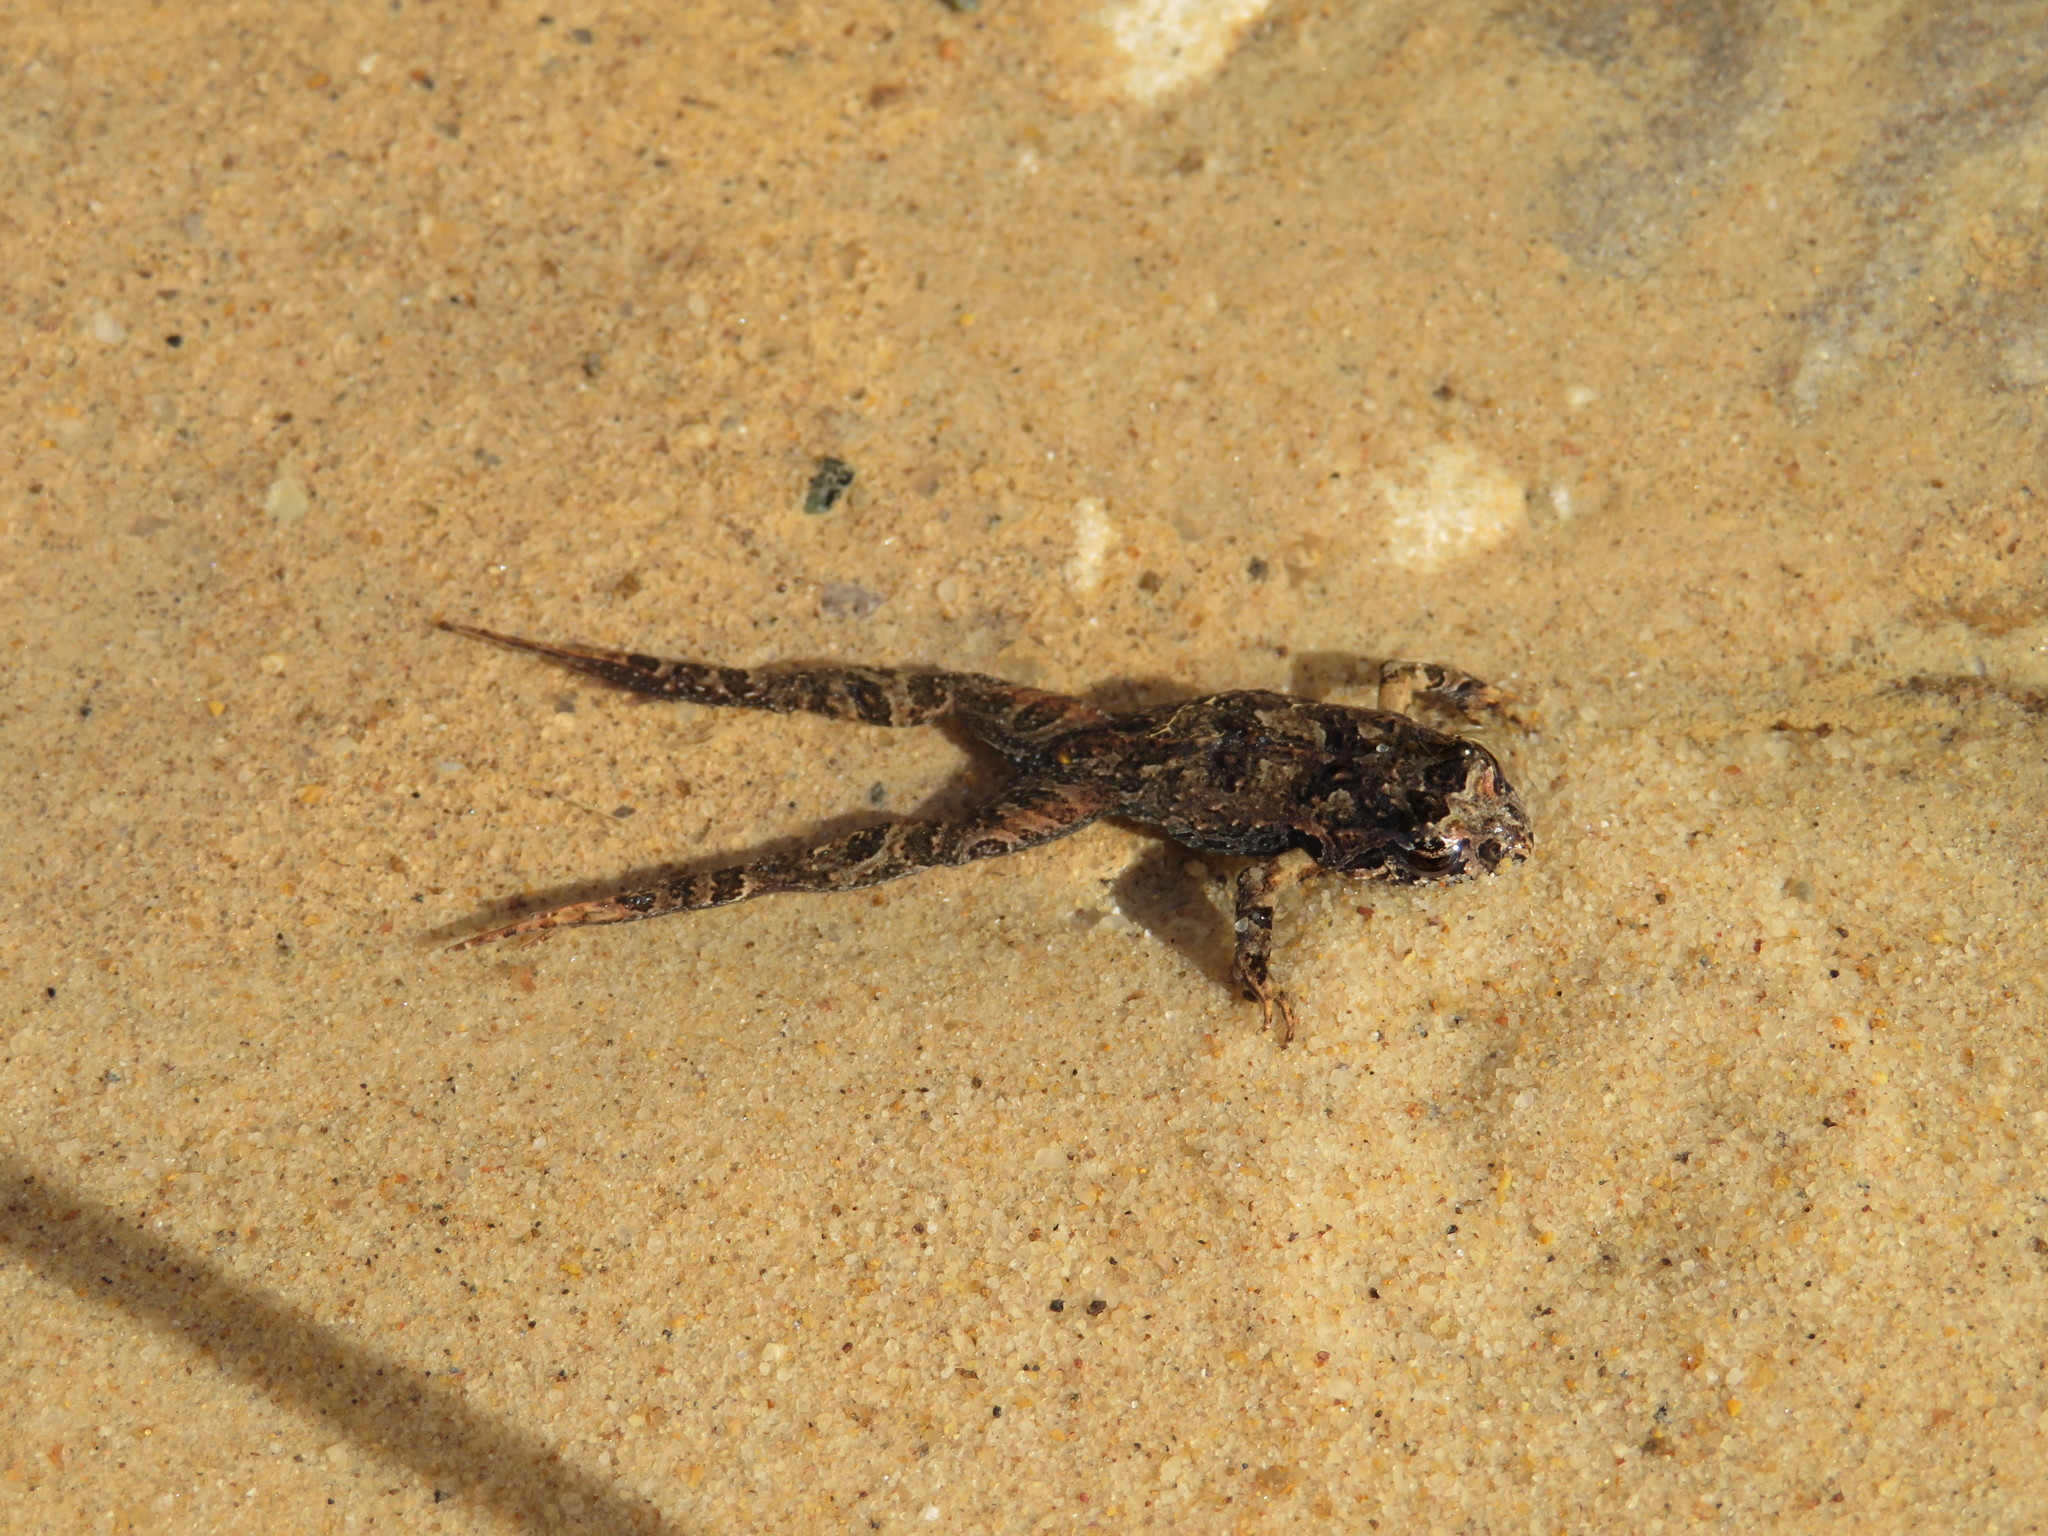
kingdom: Animalia
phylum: Chordata
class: Amphibia
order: Anura
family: Myobatrachidae
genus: Crinia
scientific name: Crinia signifera
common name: Brown froglet
